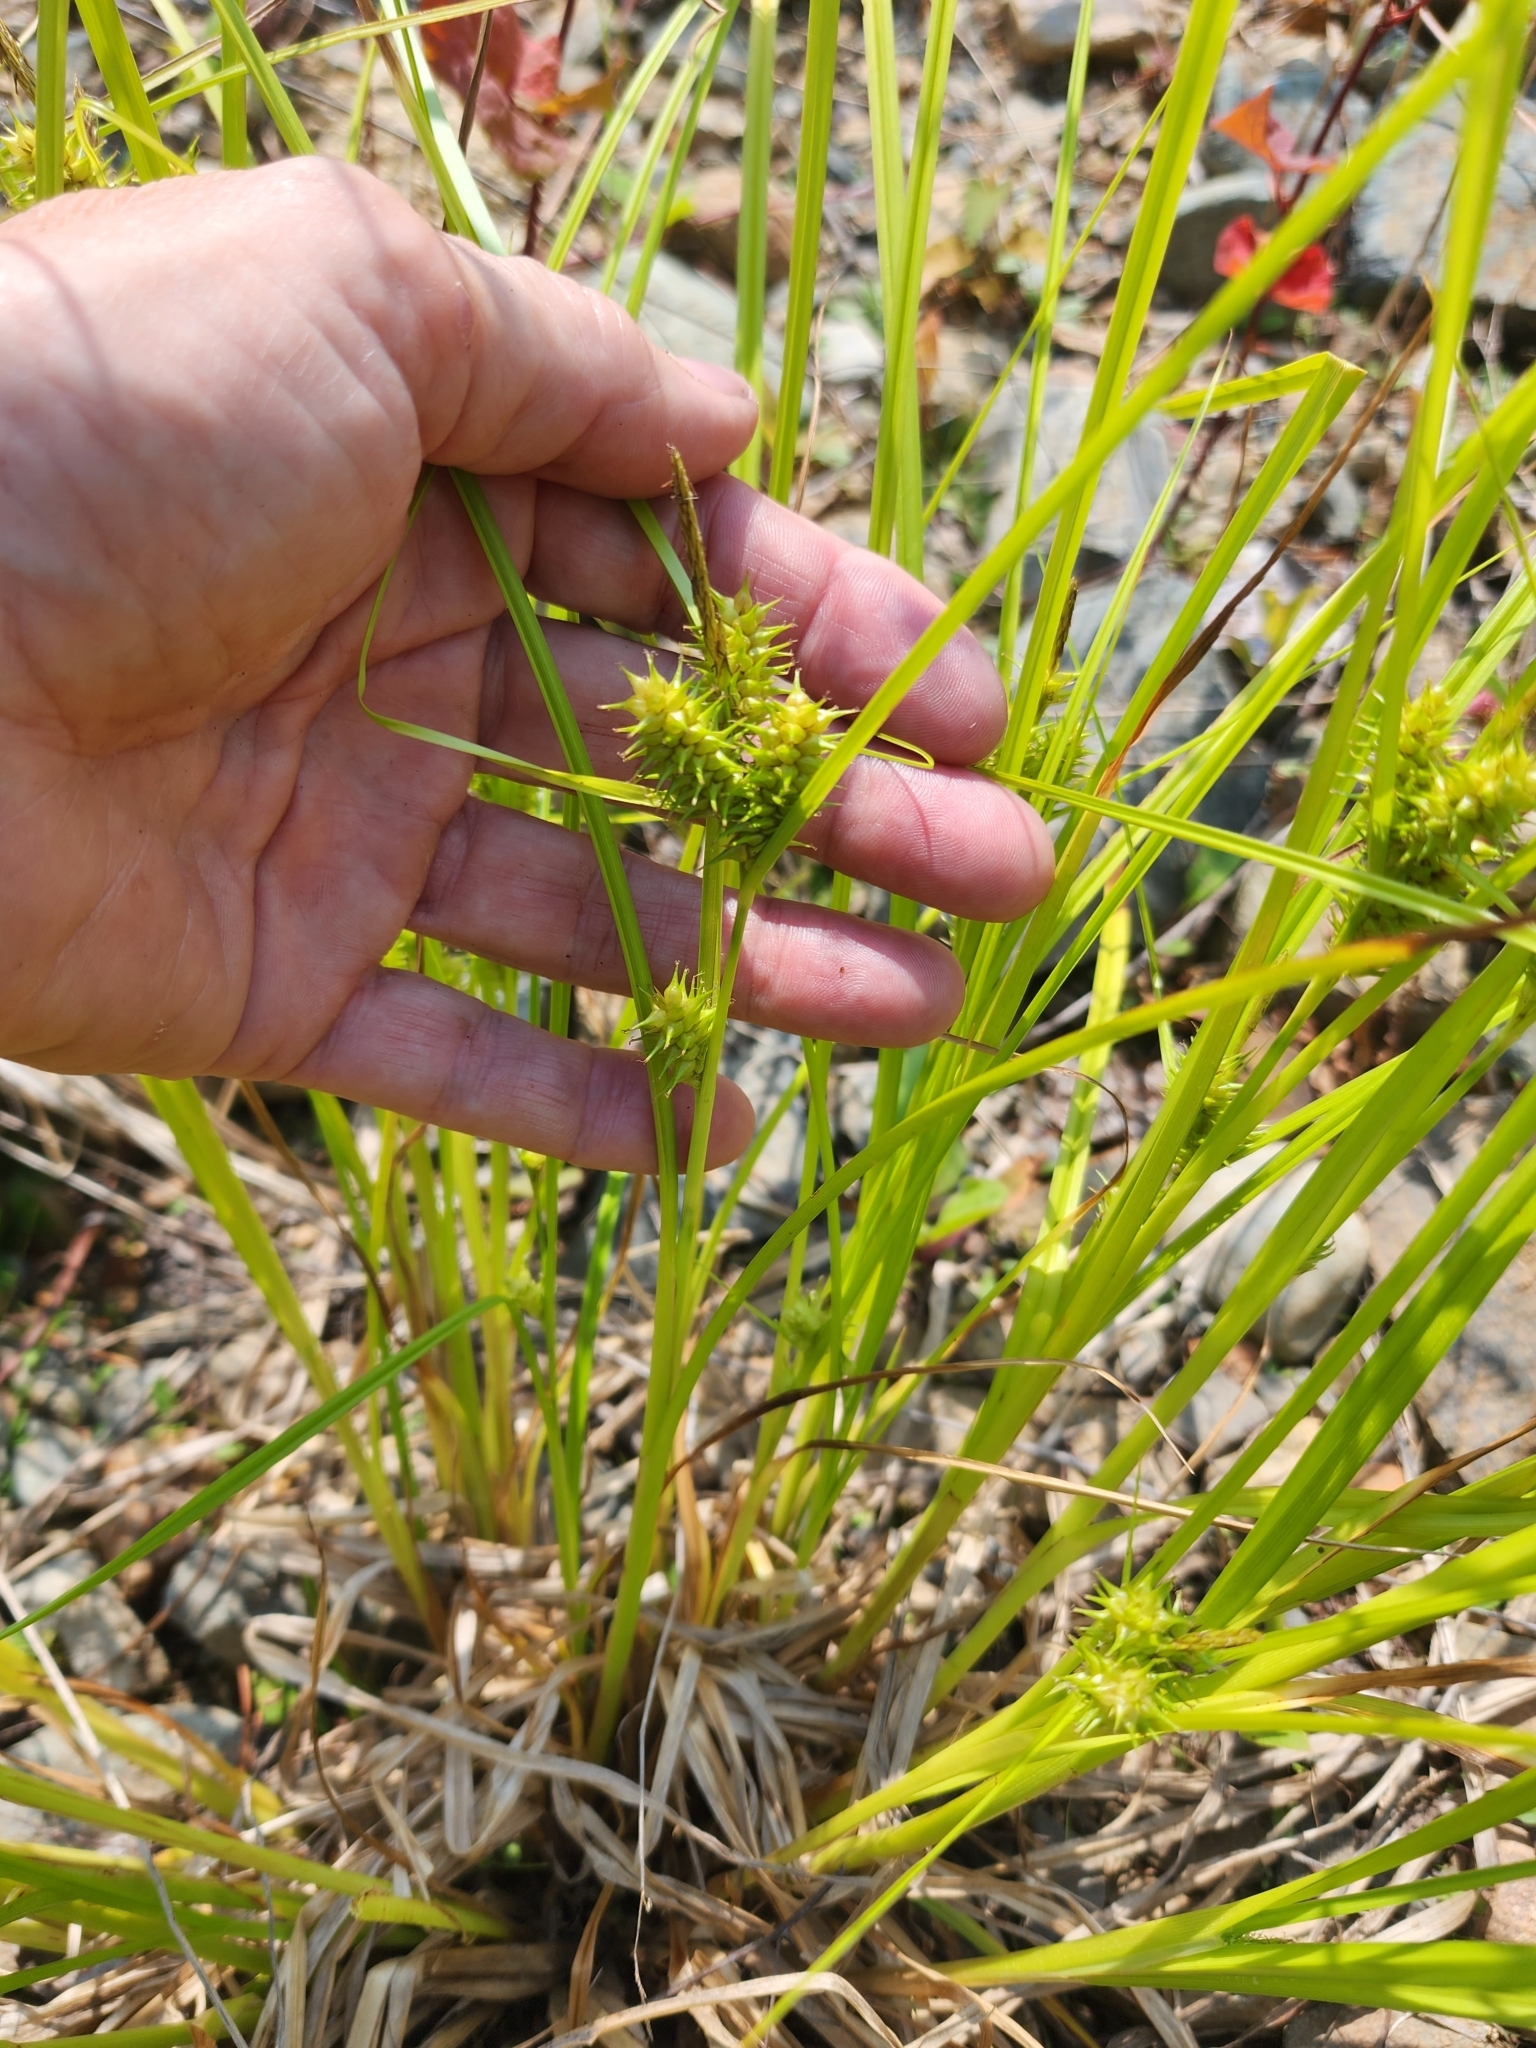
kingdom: Plantae
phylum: Tracheophyta
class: Liliopsida
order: Poales
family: Cyperaceae
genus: Carex
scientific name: Carex
